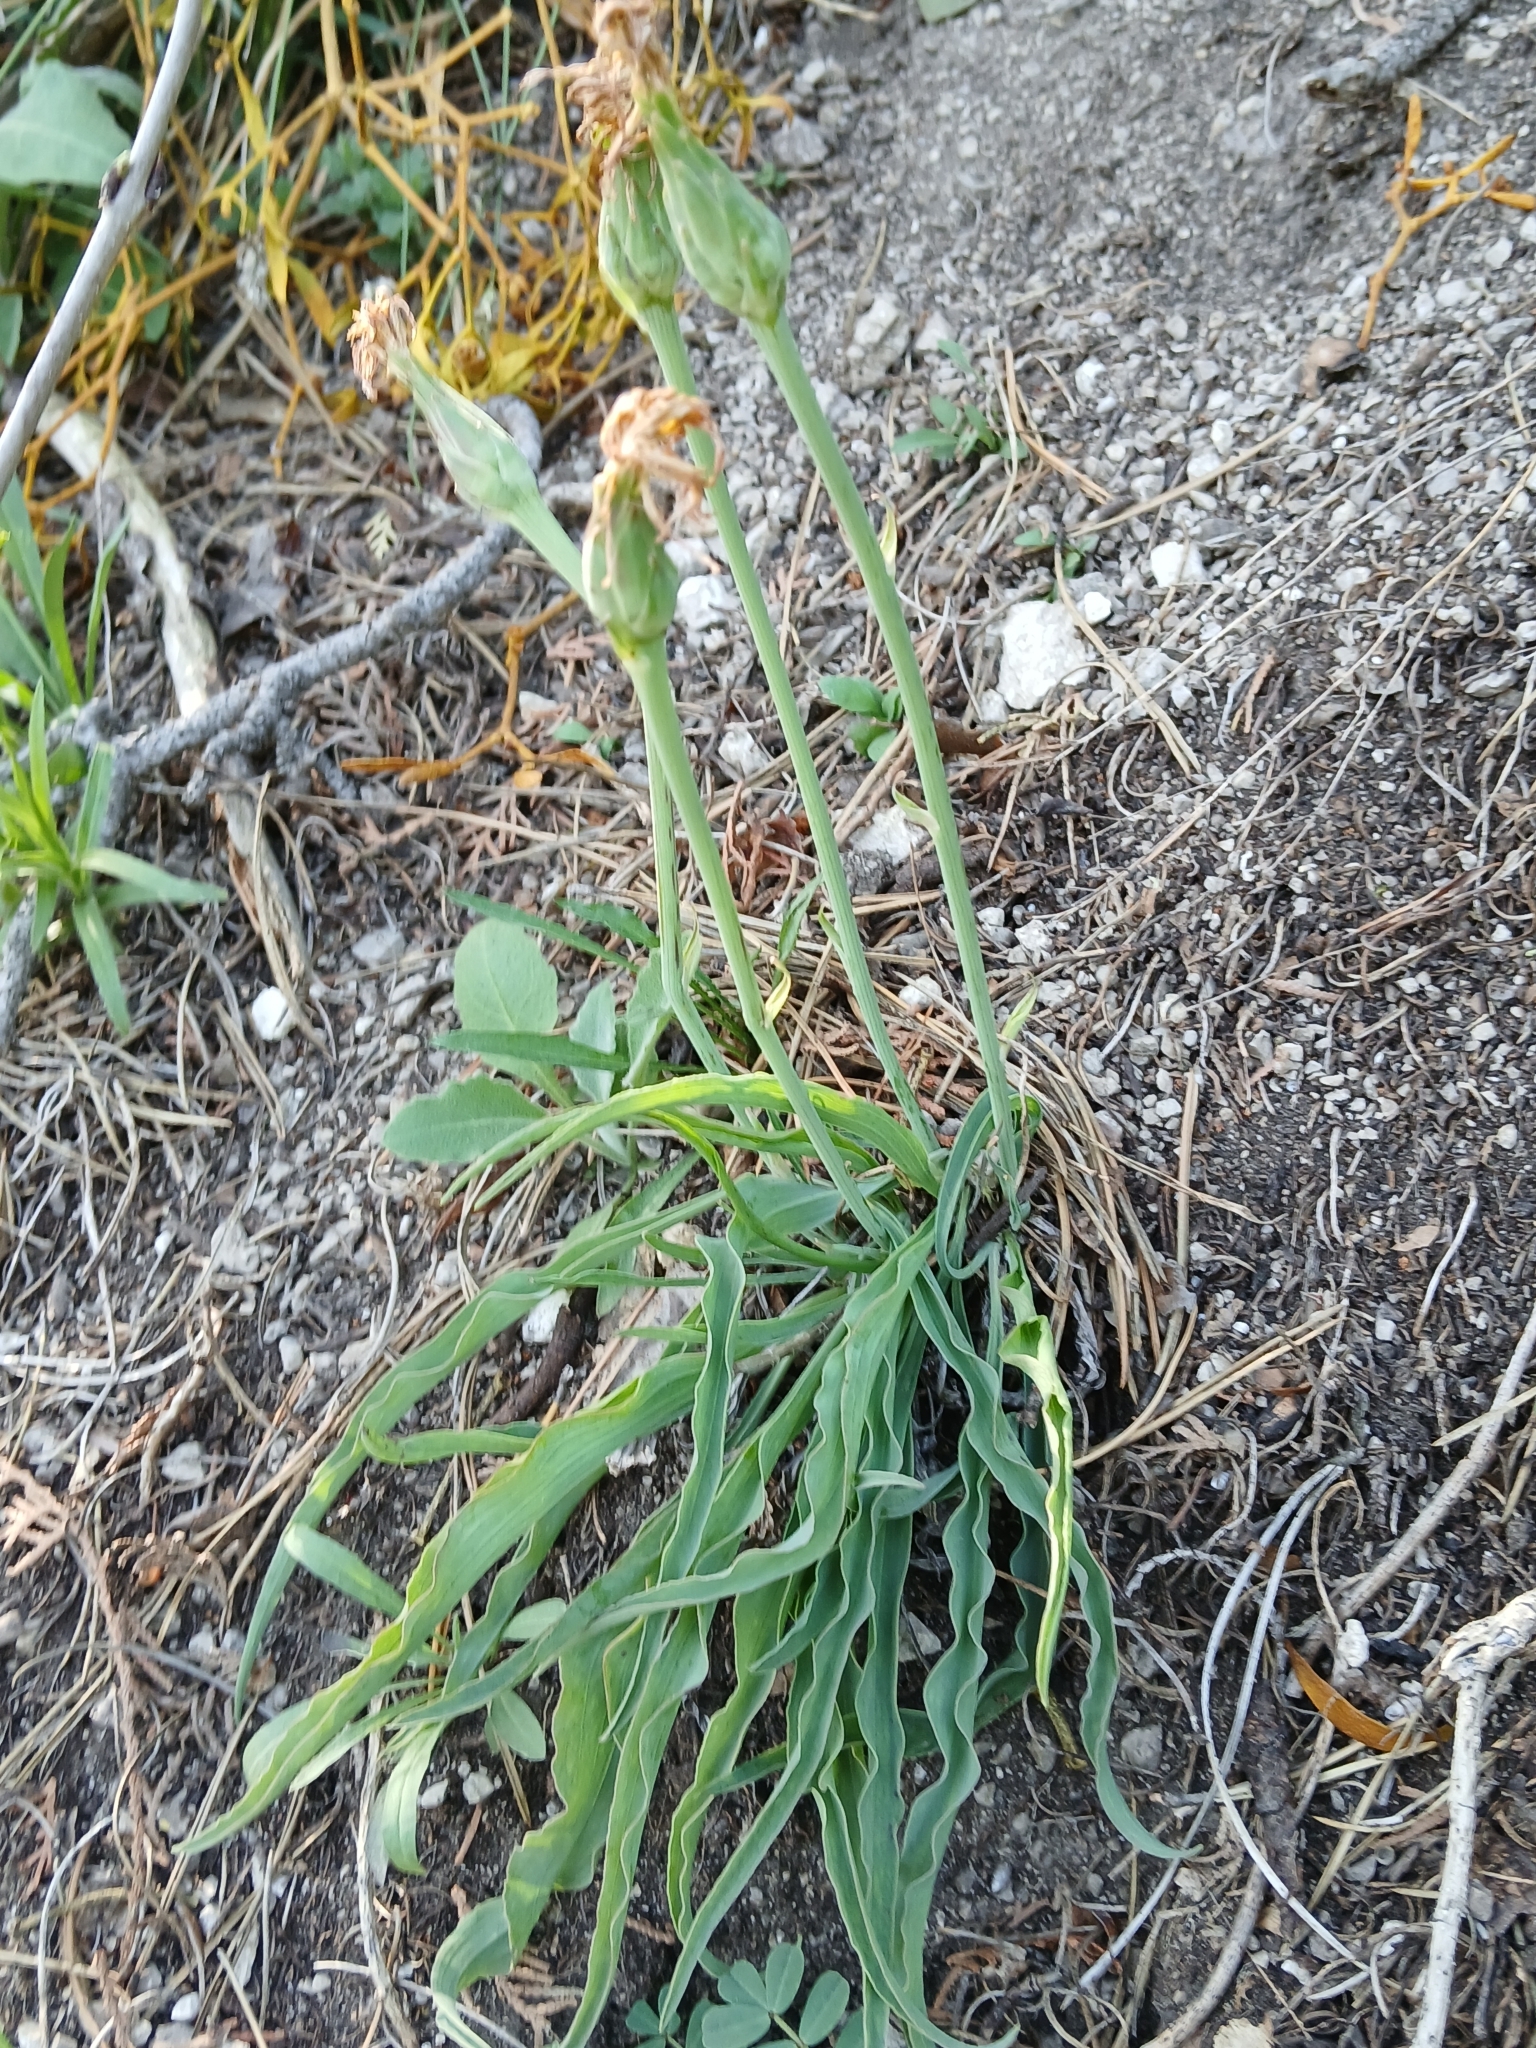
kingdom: Plantae
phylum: Tracheophyta
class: Magnoliopsida
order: Asterales
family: Asteraceae
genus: Takhtajaniantha
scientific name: Takhtajaniantha austriaca
